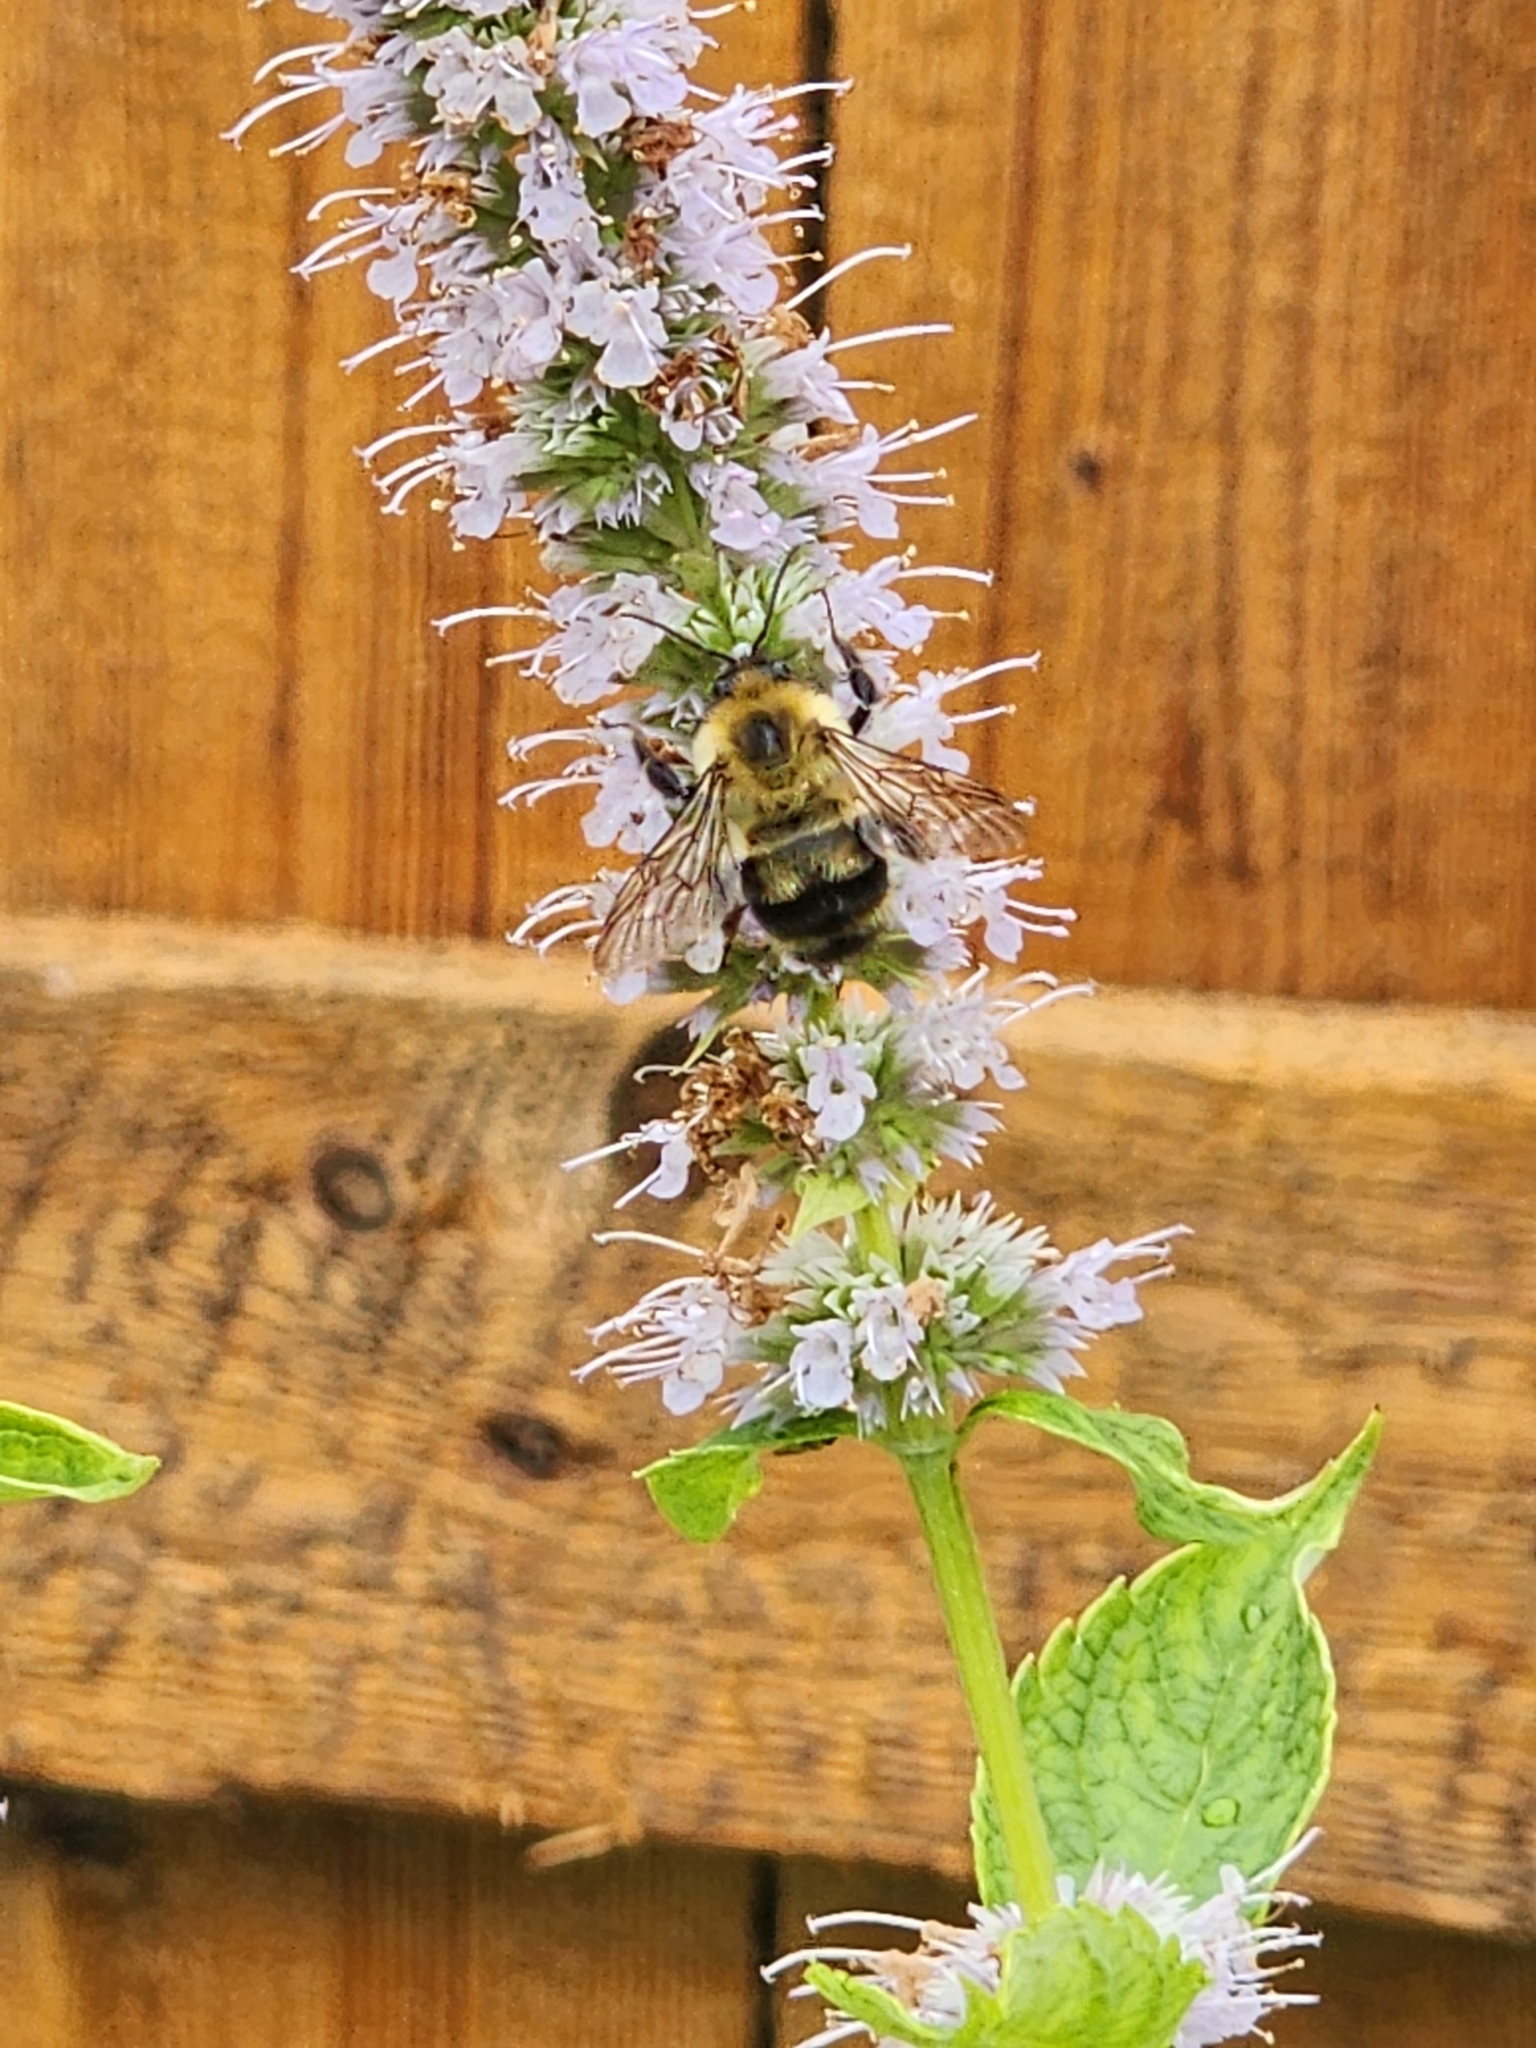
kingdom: Animalia
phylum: Arthropoda
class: Insecta
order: Hymenoptera
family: Apidae
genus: Bombus
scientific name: Bombus bimaculatus
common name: Two-spotted bumble bee
